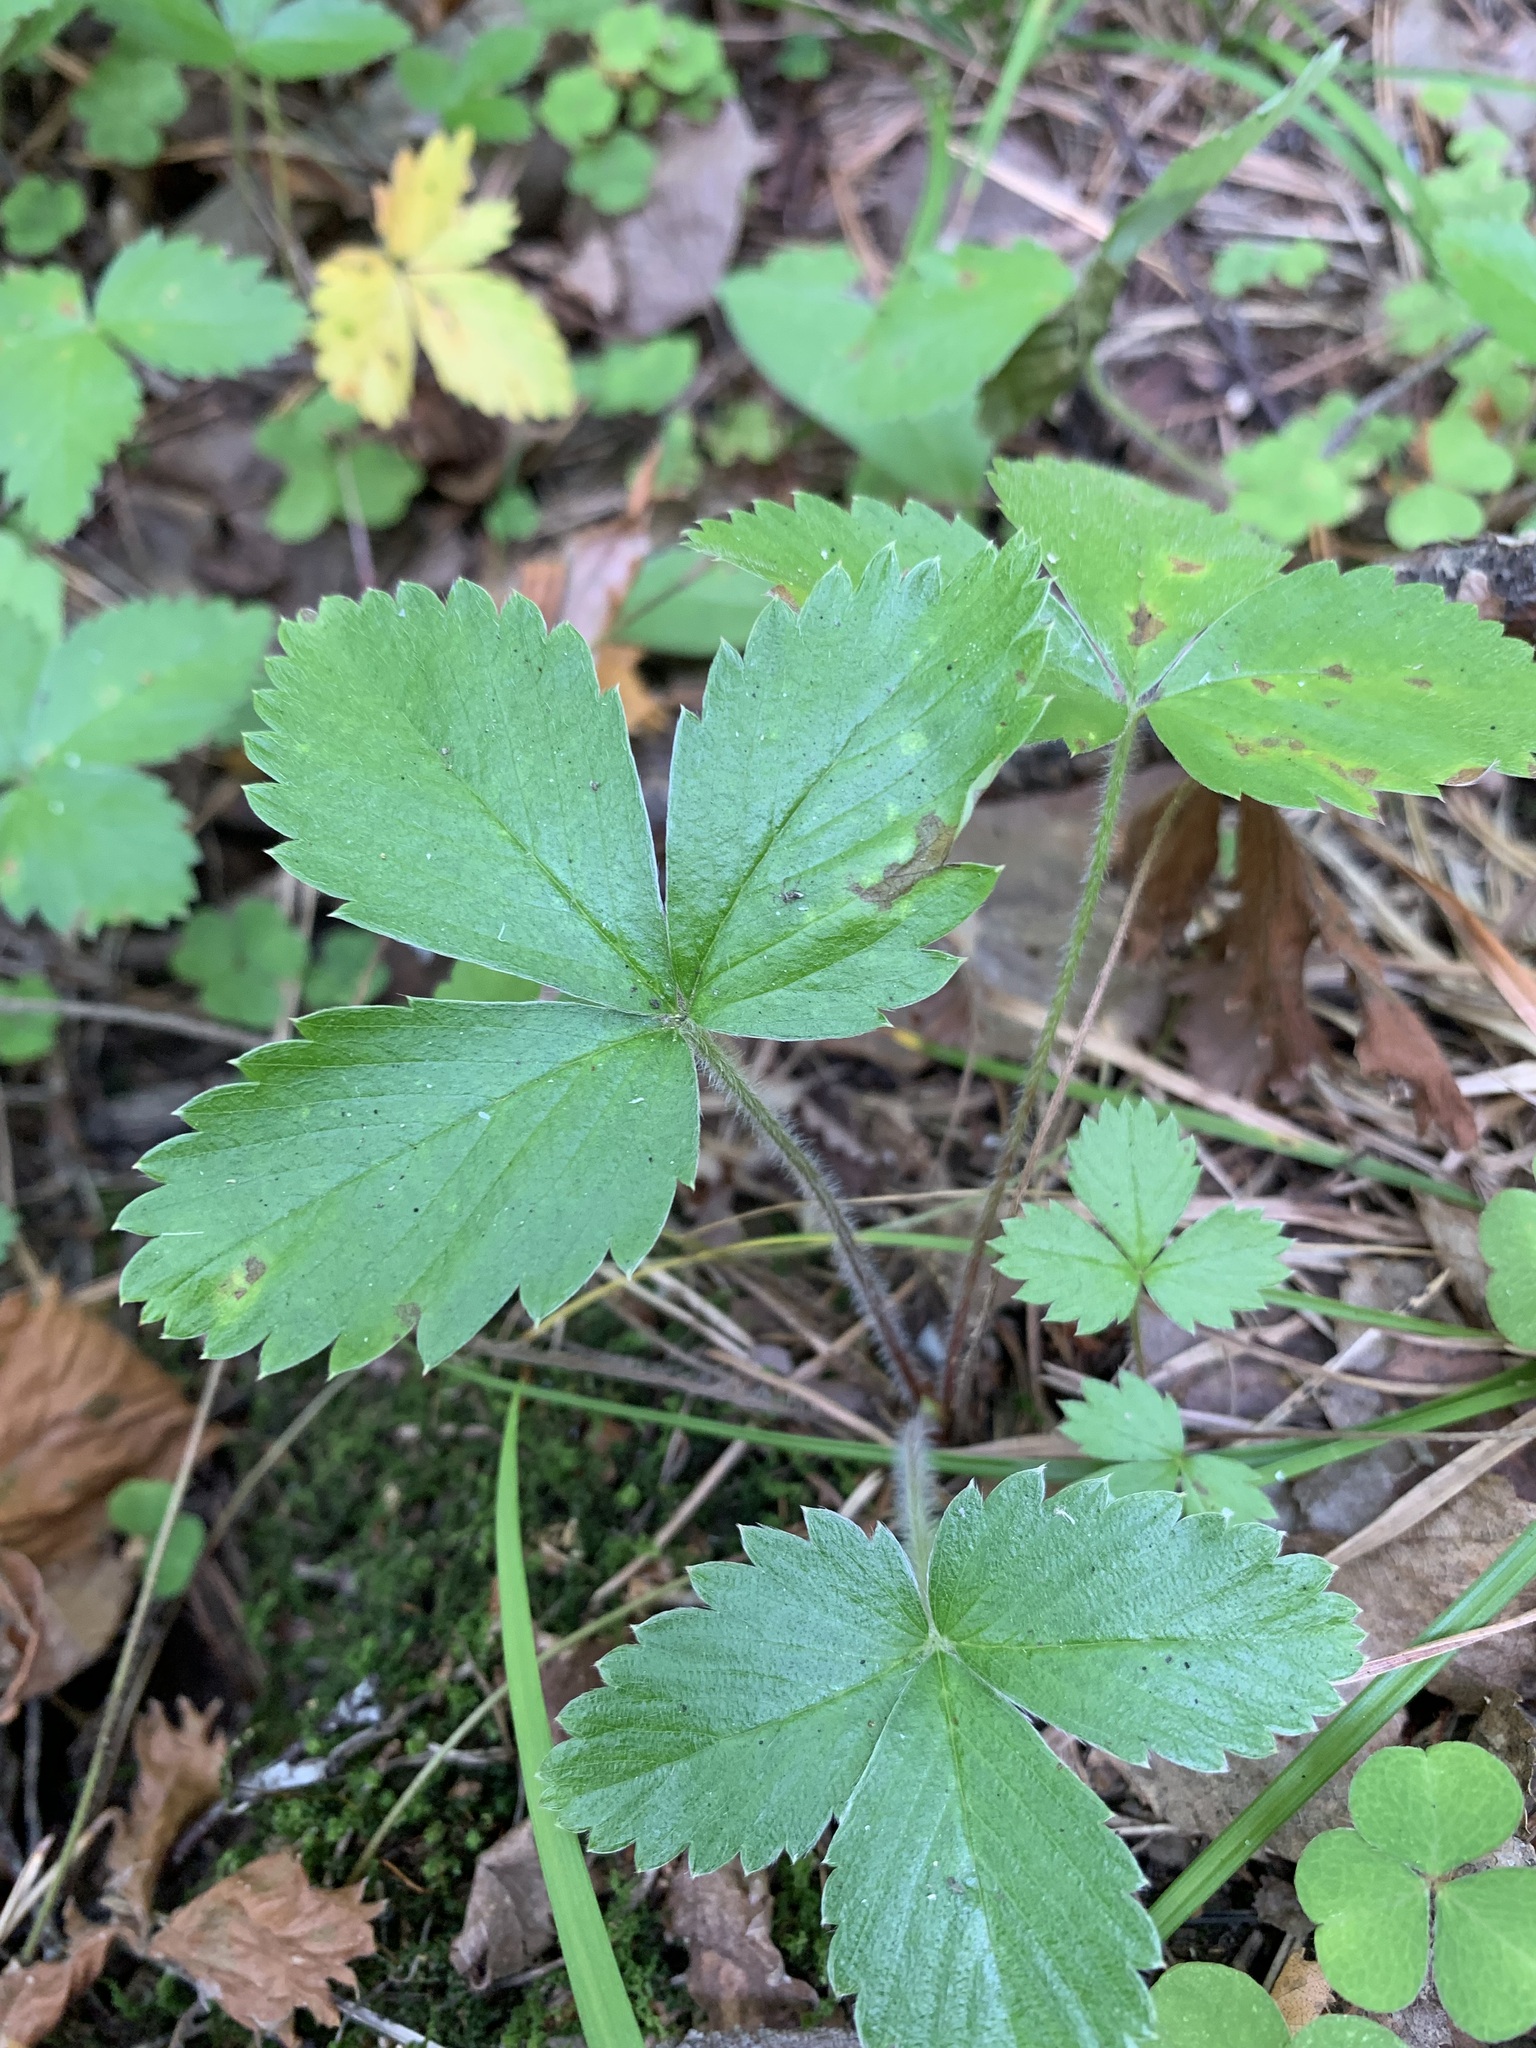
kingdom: Plantae
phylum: Tracheophyta
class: Magnoliopsida
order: Rosales
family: Rosaceae
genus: Fragaria
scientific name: Fragaria vesca
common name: Wild strawberry
